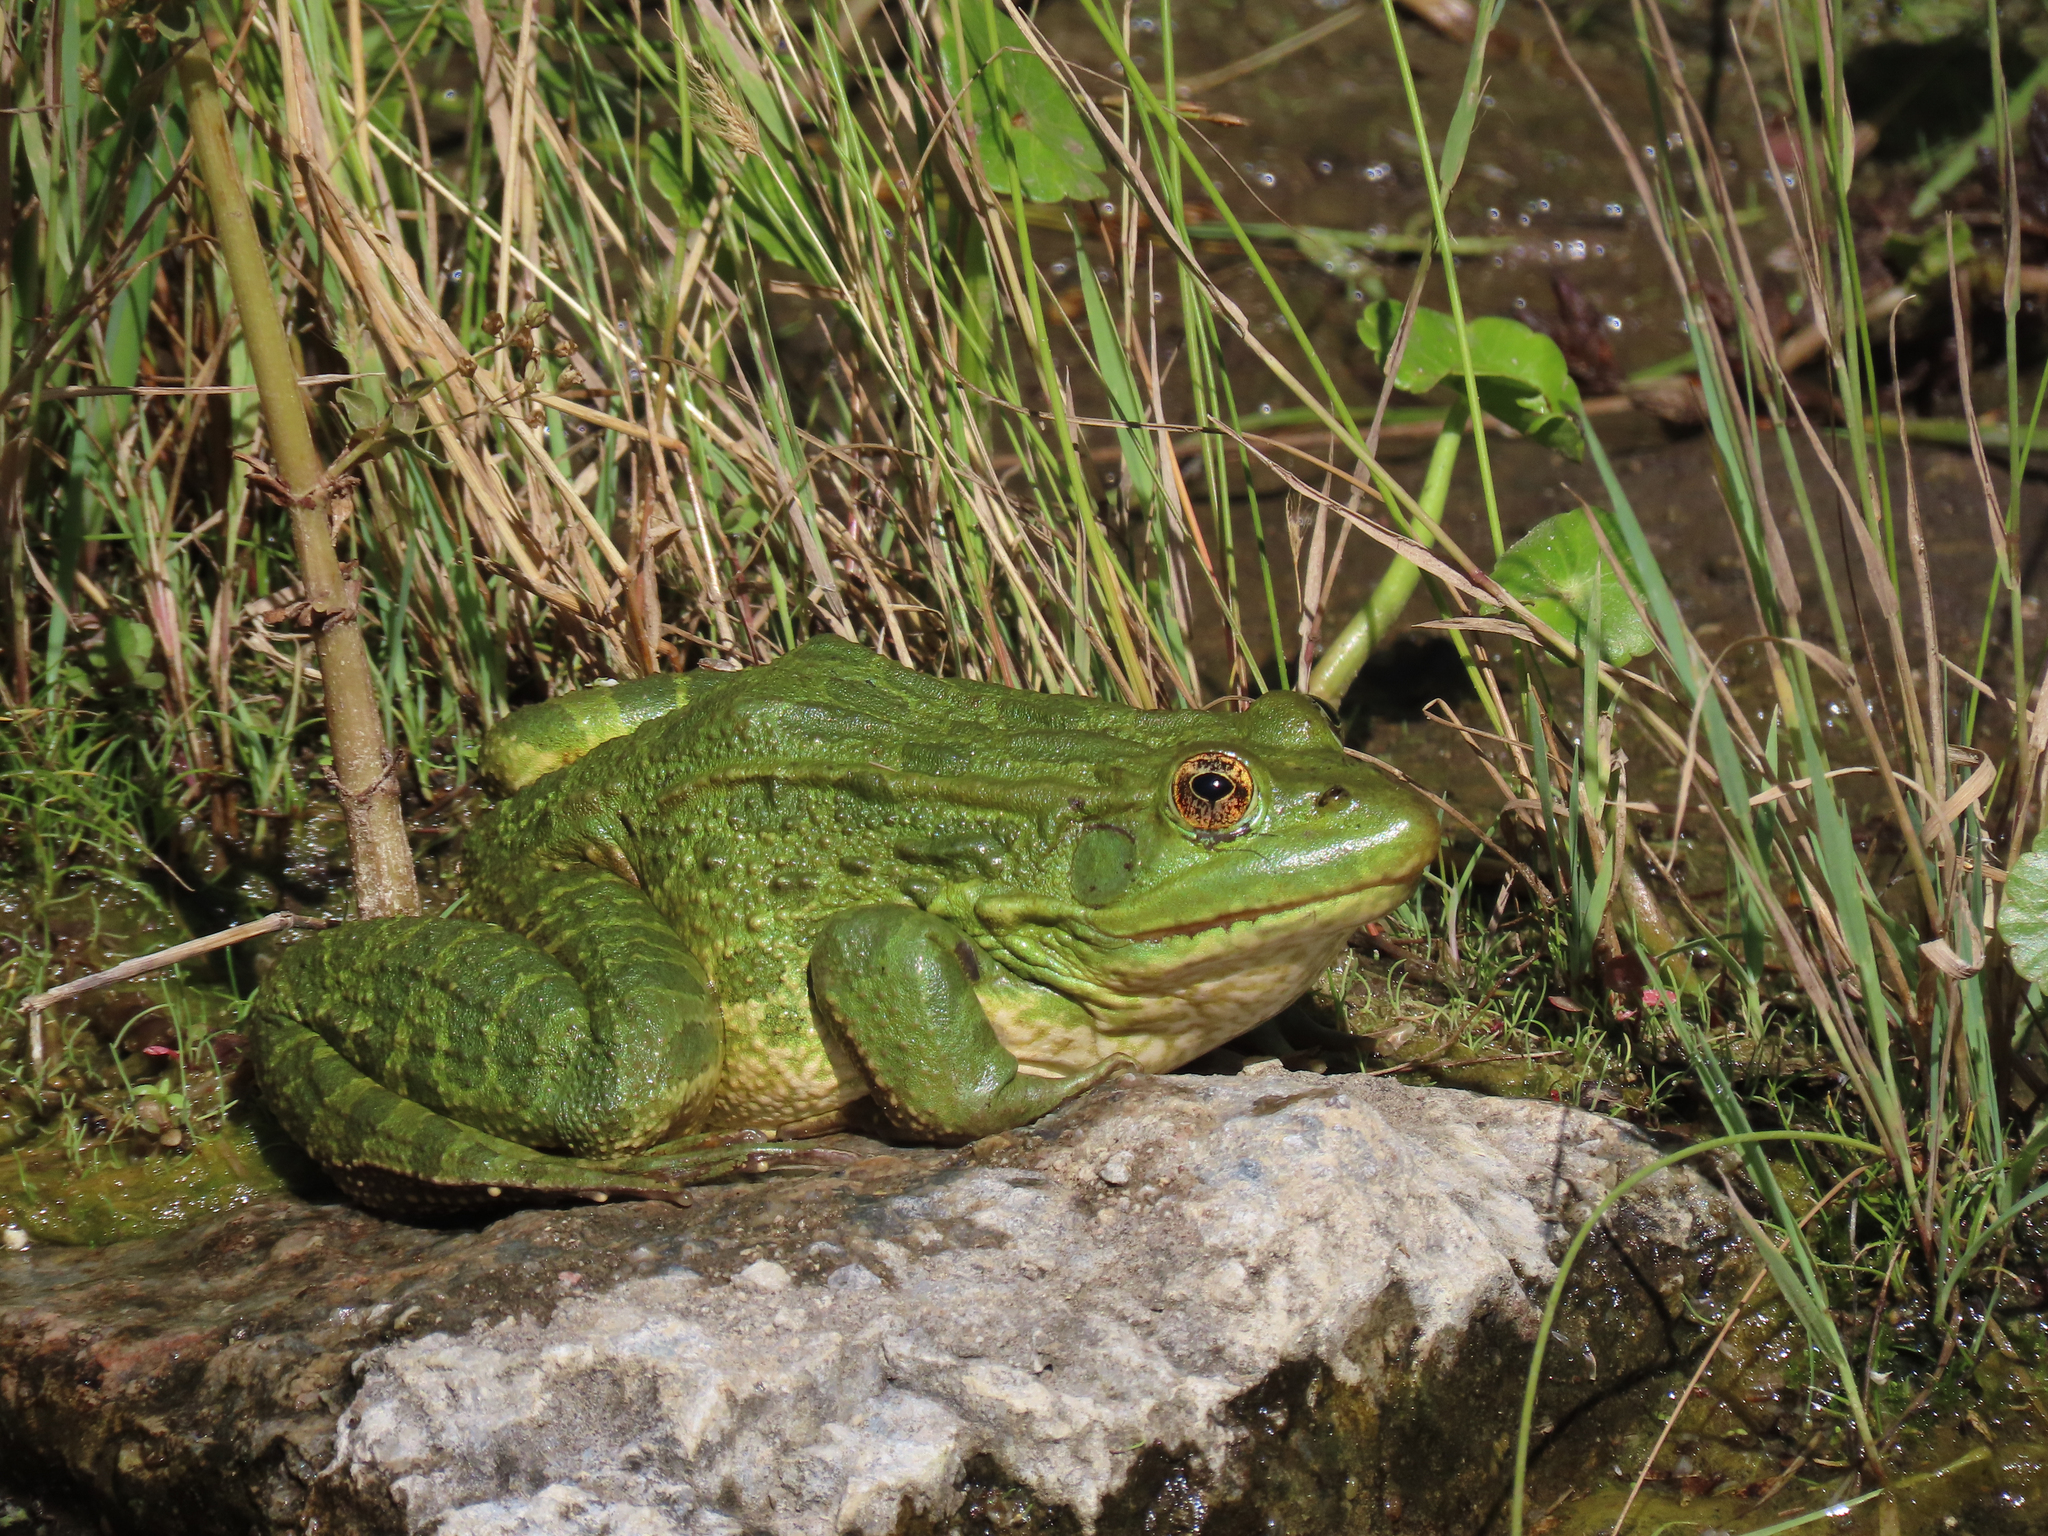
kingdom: Animalia
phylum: Chordata
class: Amphibia
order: Anura
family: Ranidae
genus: Lithobates
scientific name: Lithobates chiricahuensis
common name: Chiricahua leopard frog
